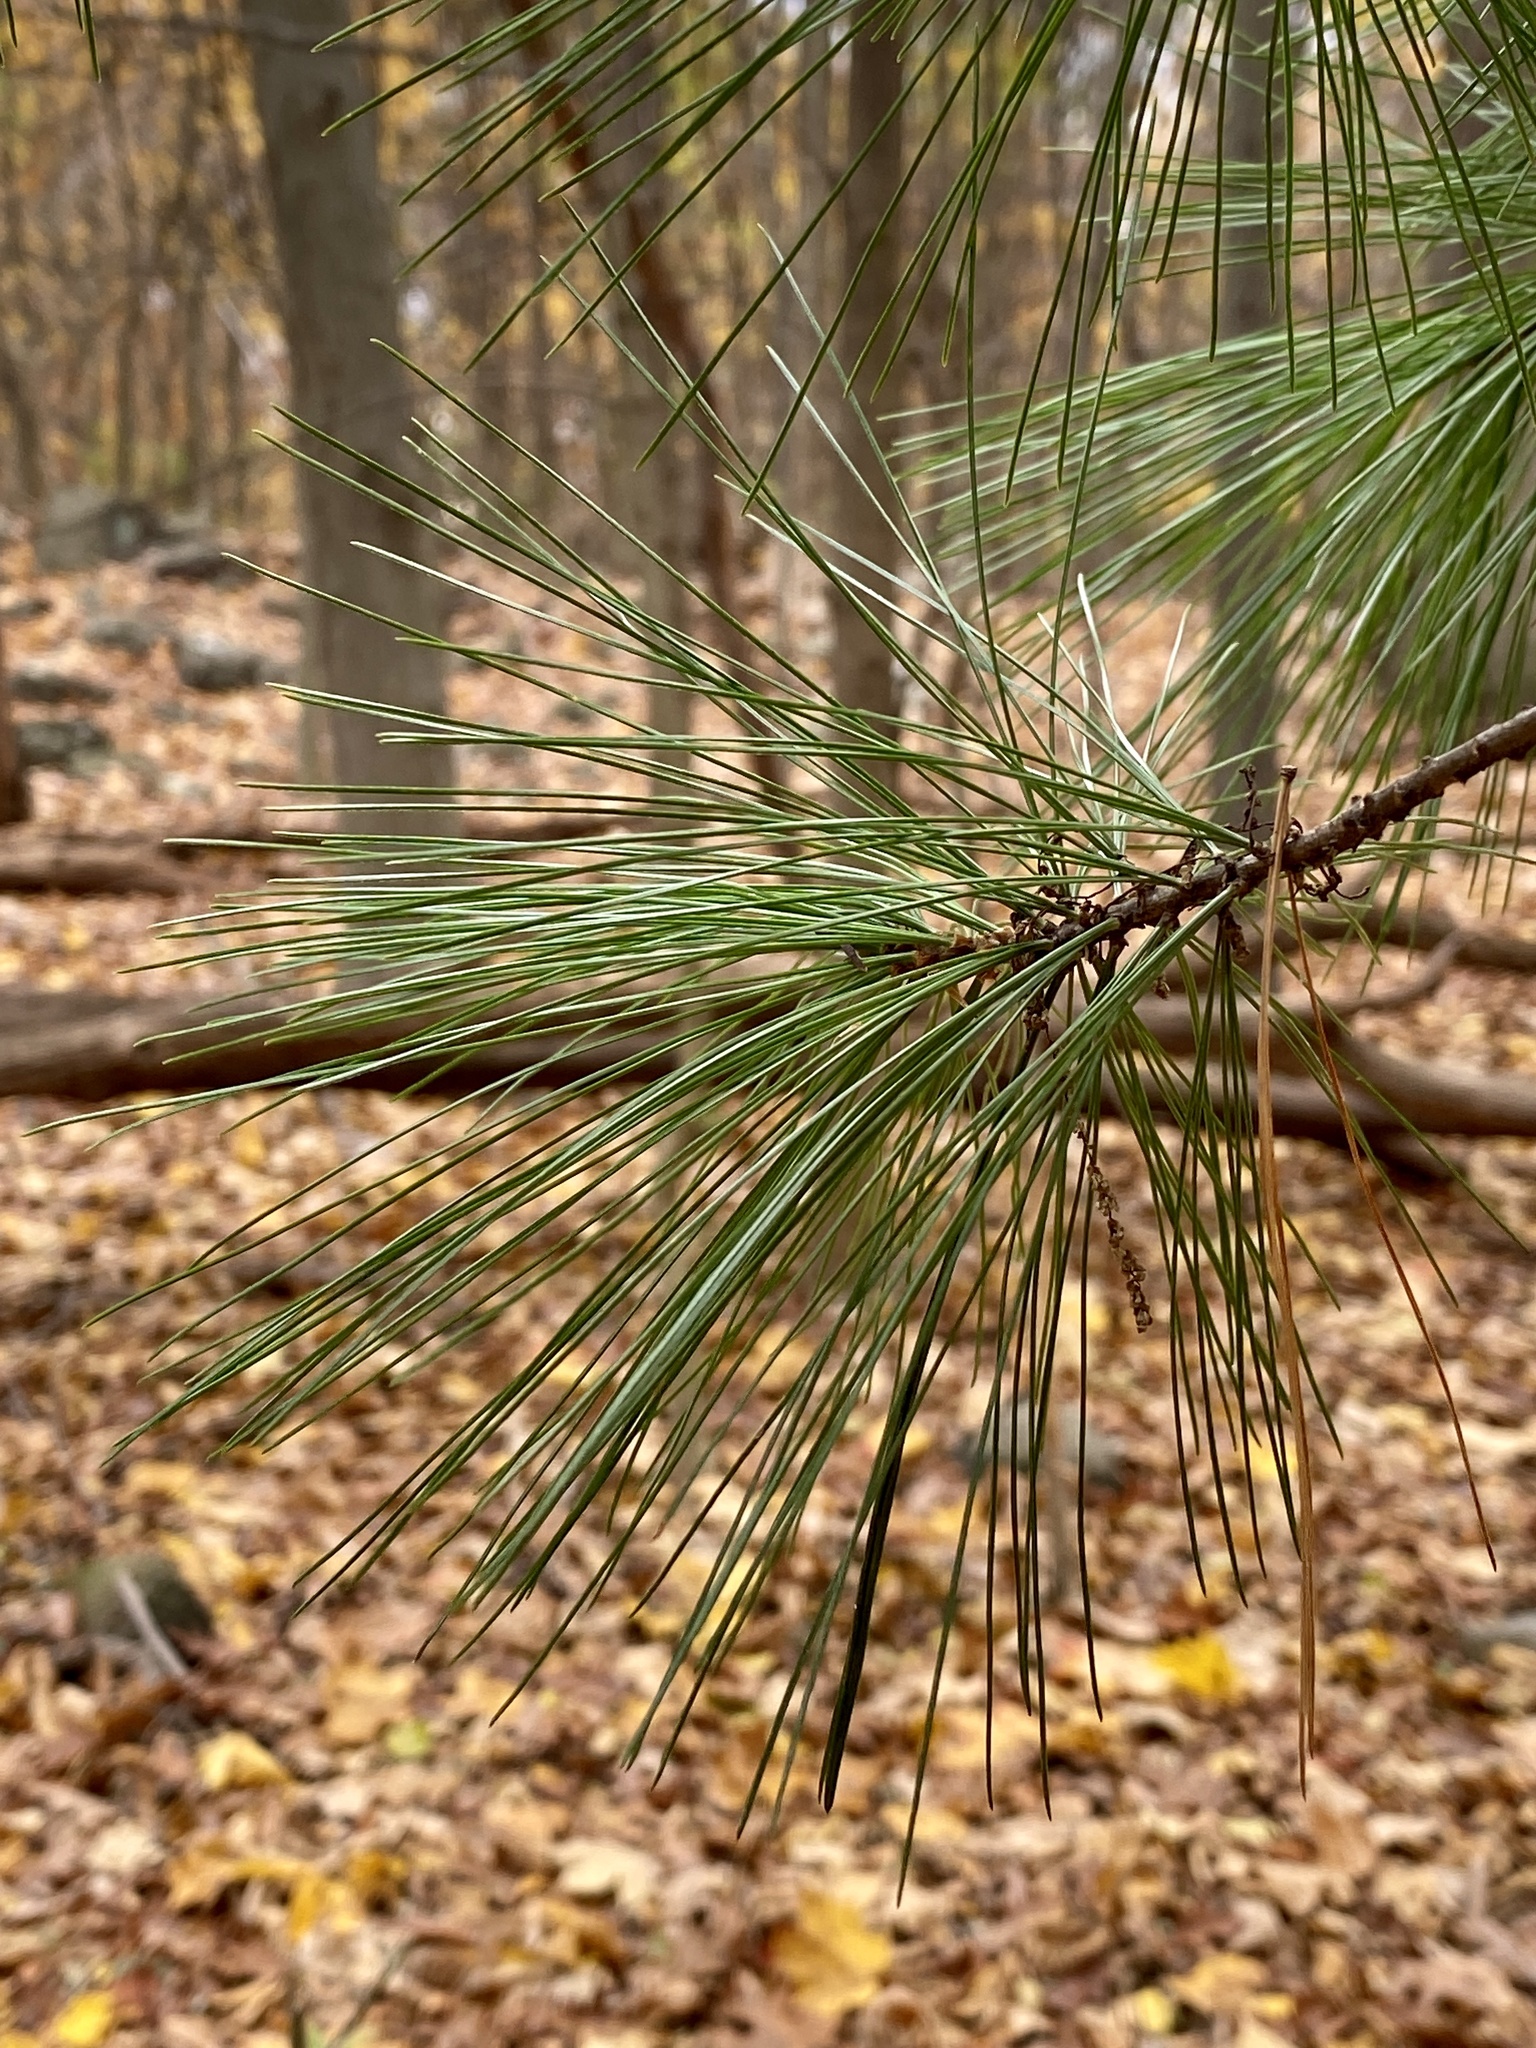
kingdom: Plantae
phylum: Tracheophyta
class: Pinopsida
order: Pinales
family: Pinaceae
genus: Pinus
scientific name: Pinus strobus
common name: Weymouth pine
